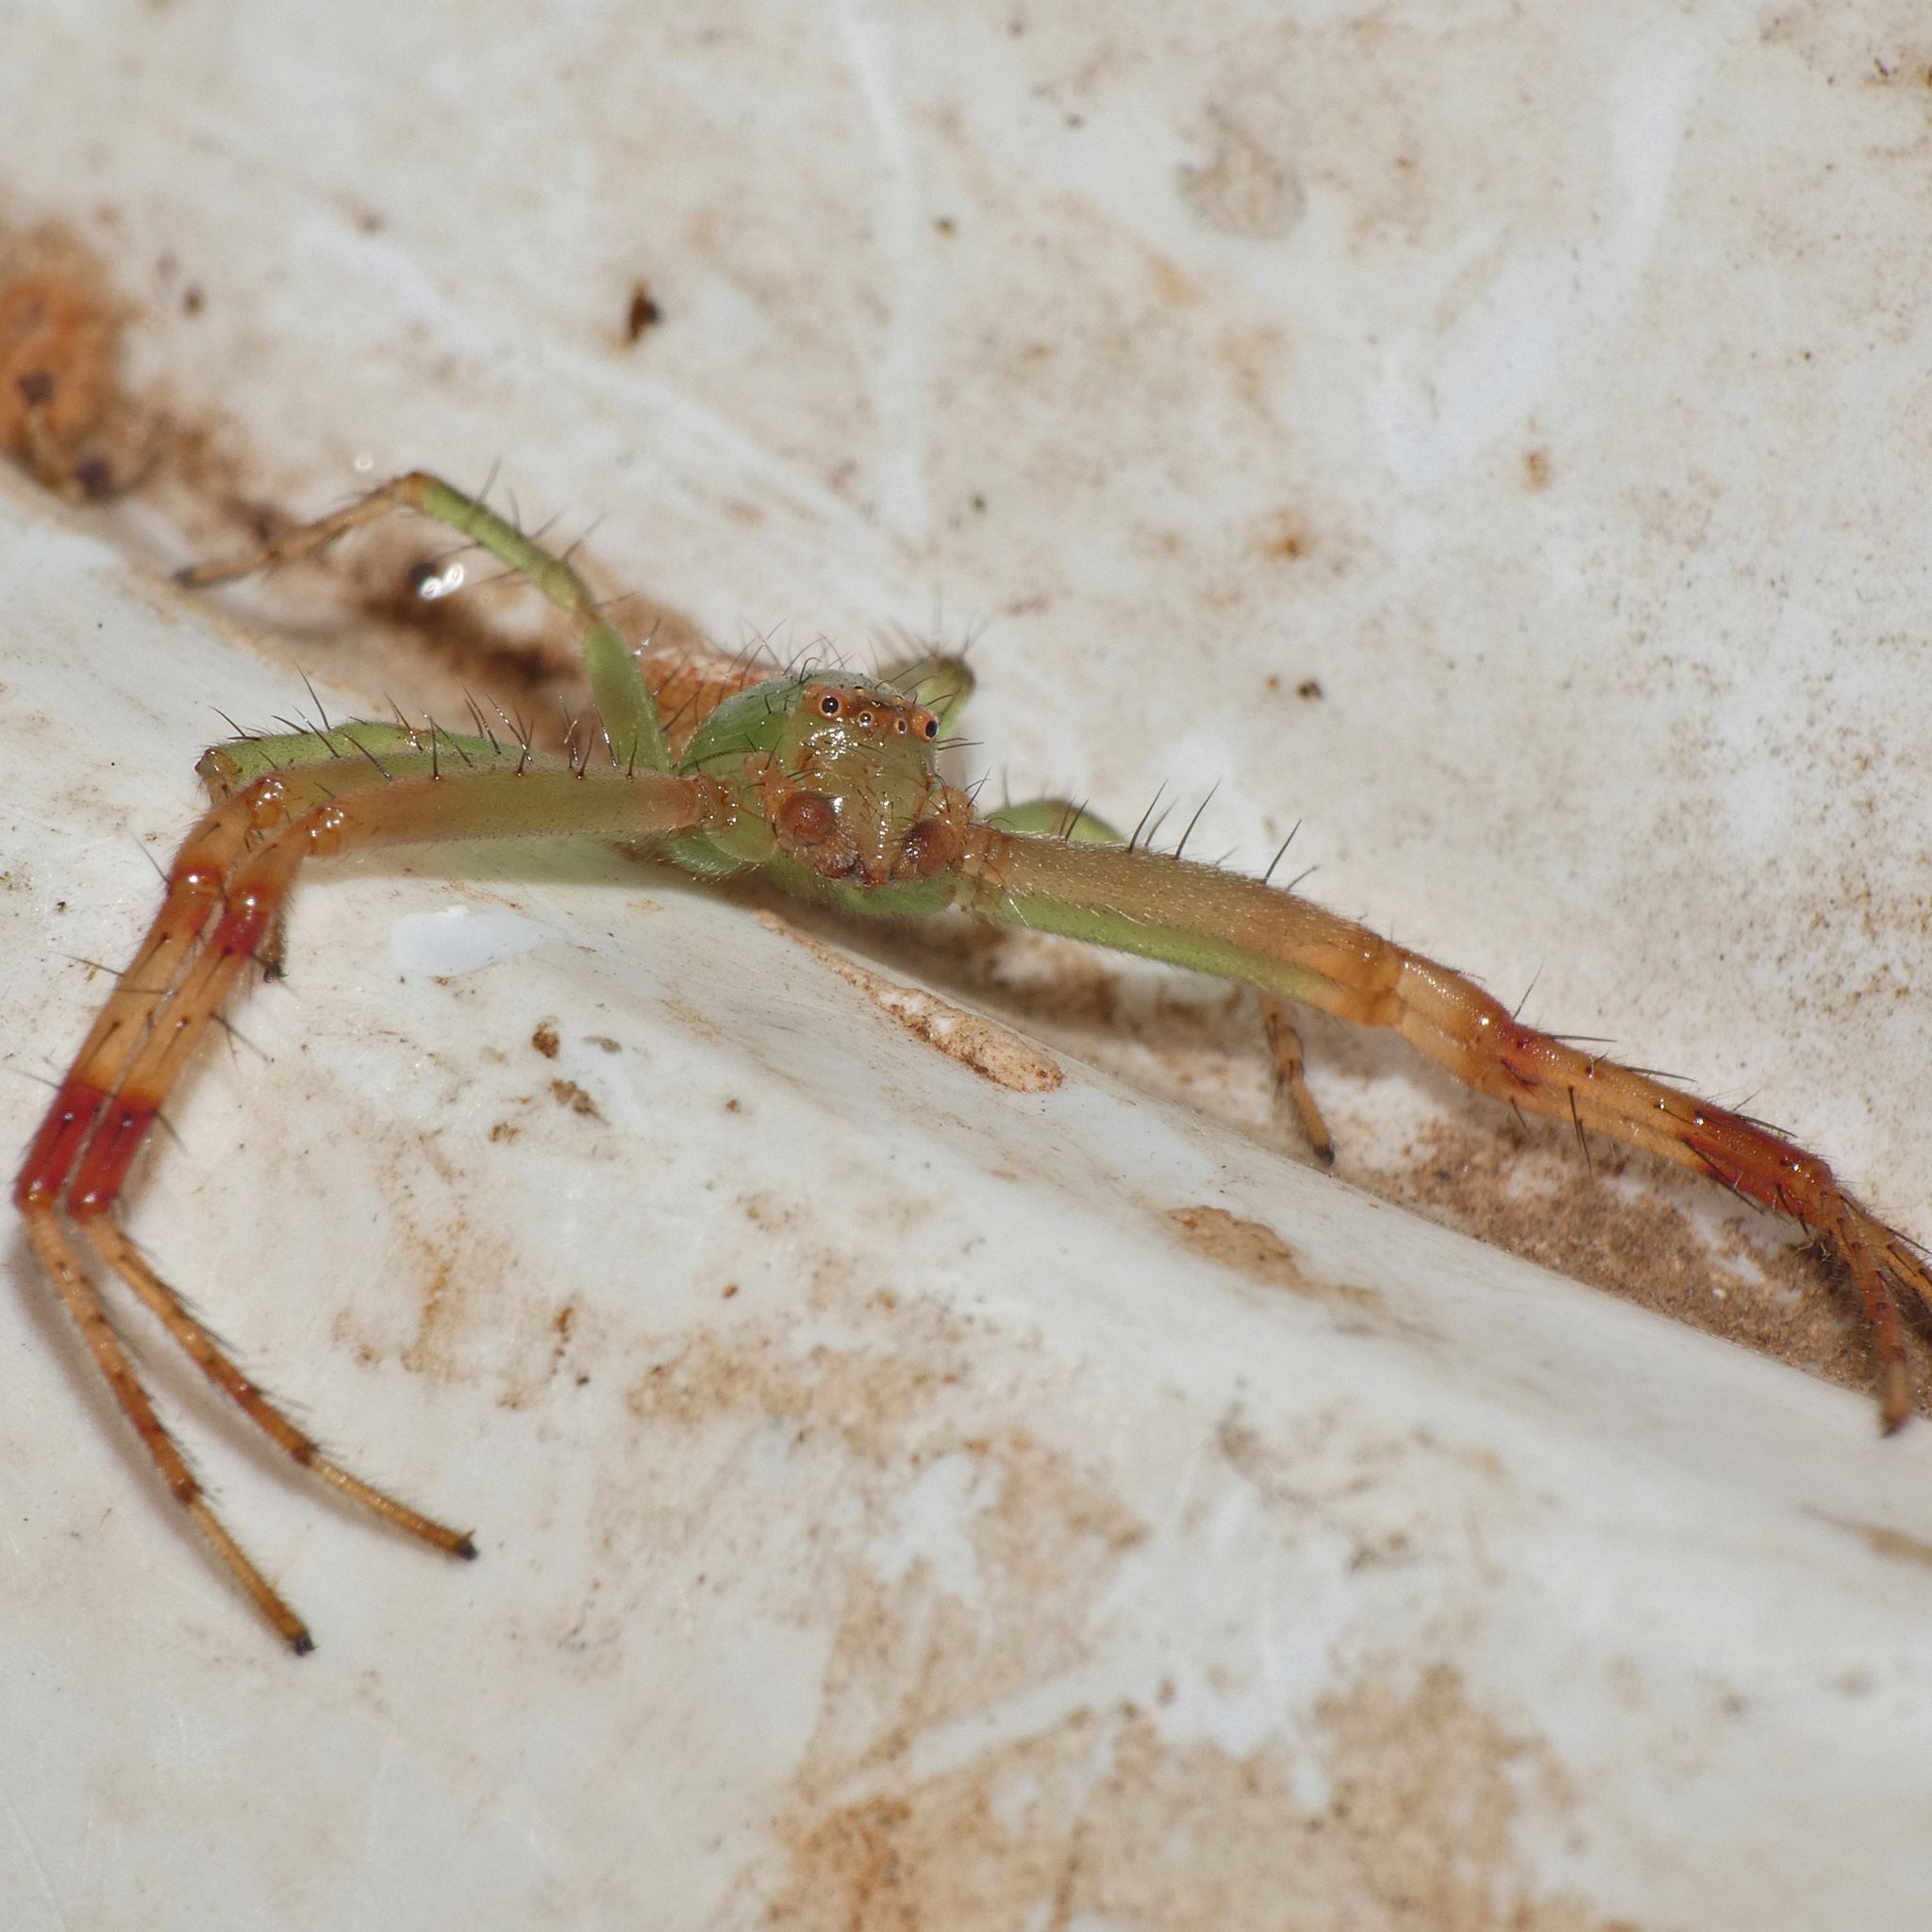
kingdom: Animalia
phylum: Arthropoda
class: Arachnida
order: Araneae
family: Thomisidae
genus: Synema
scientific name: Synema imitatrix
